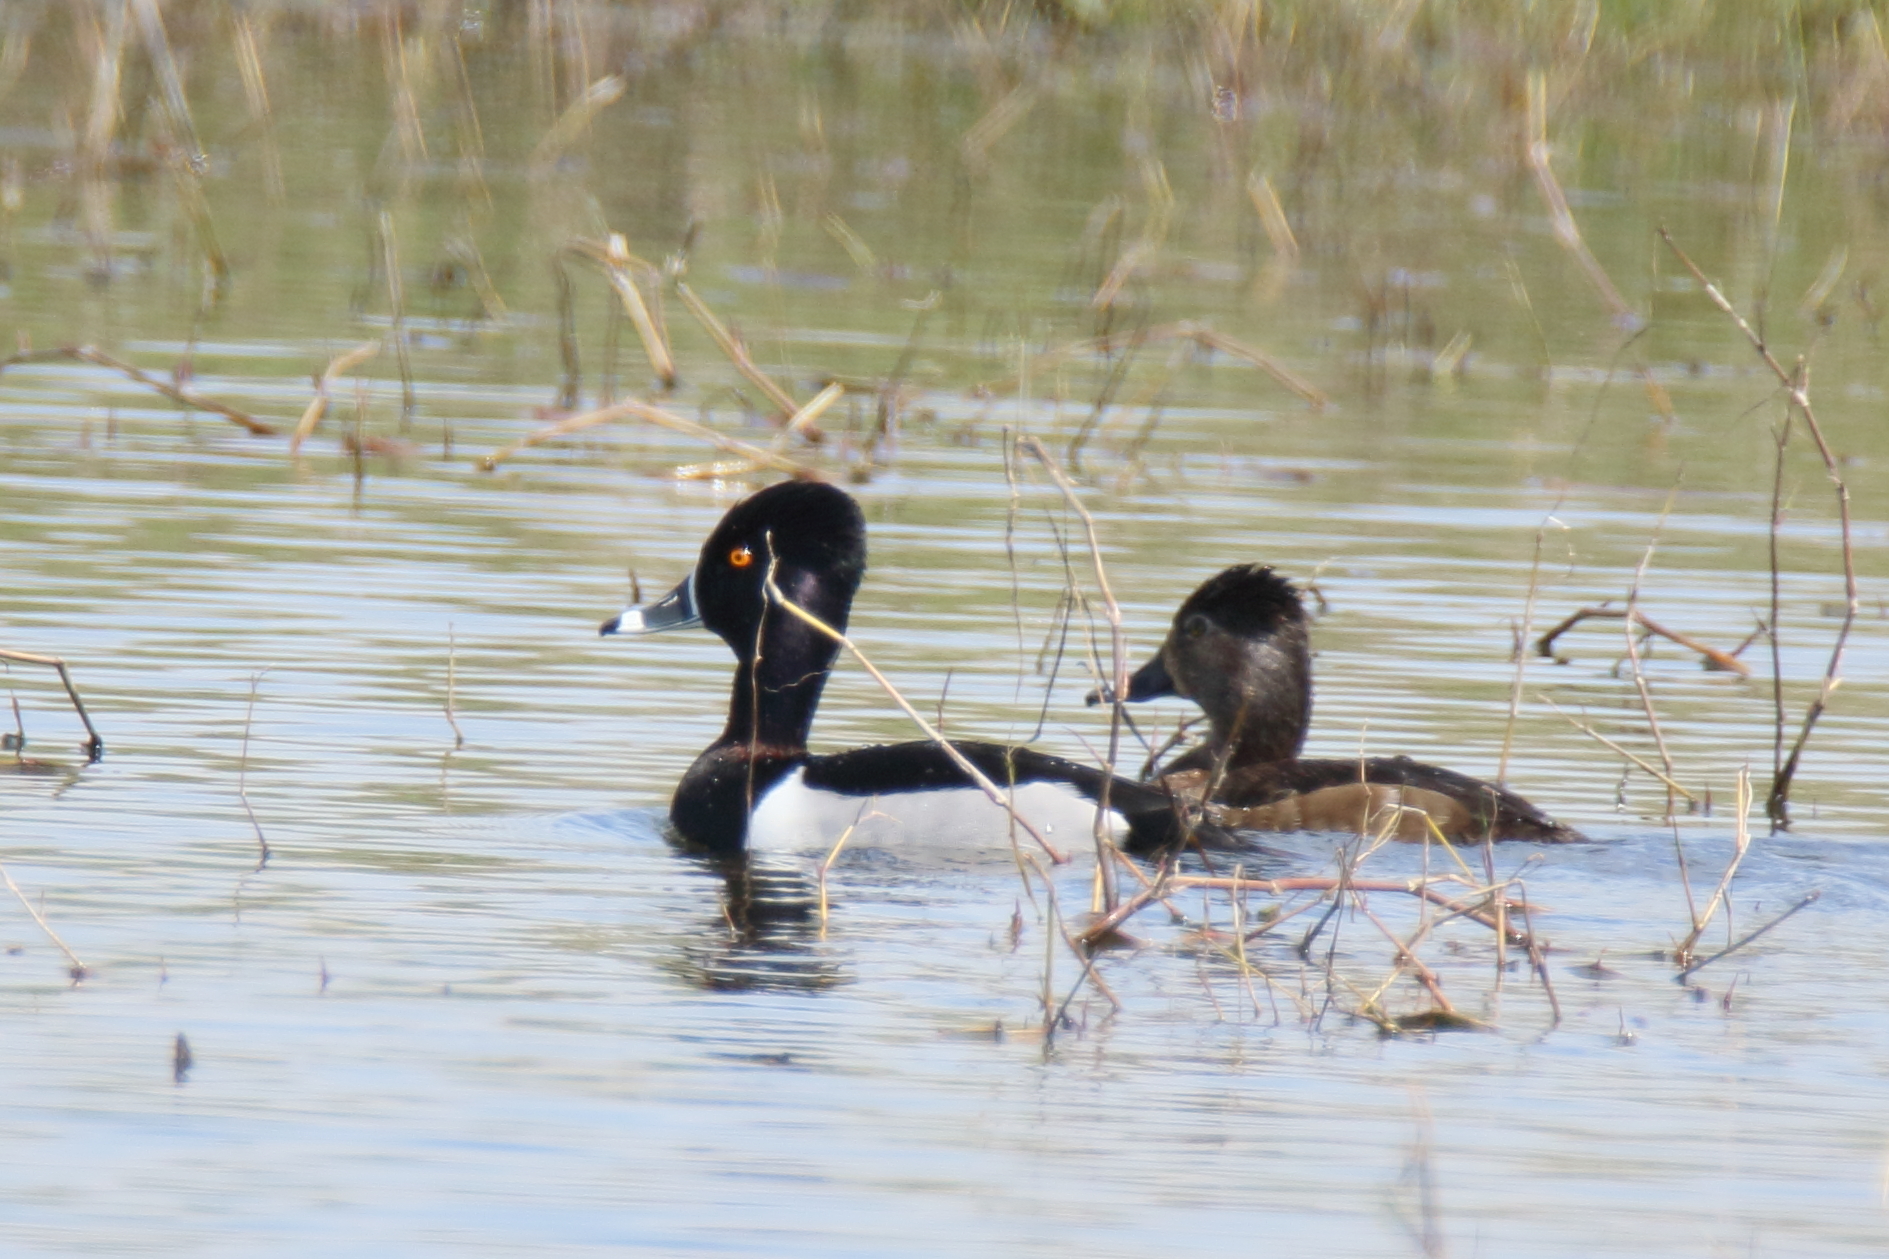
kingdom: Animalia
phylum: Chordata
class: Aves
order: Anseriformes
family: Anatidae
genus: Aythya
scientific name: Aythya collaris
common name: Ring-necked duck
